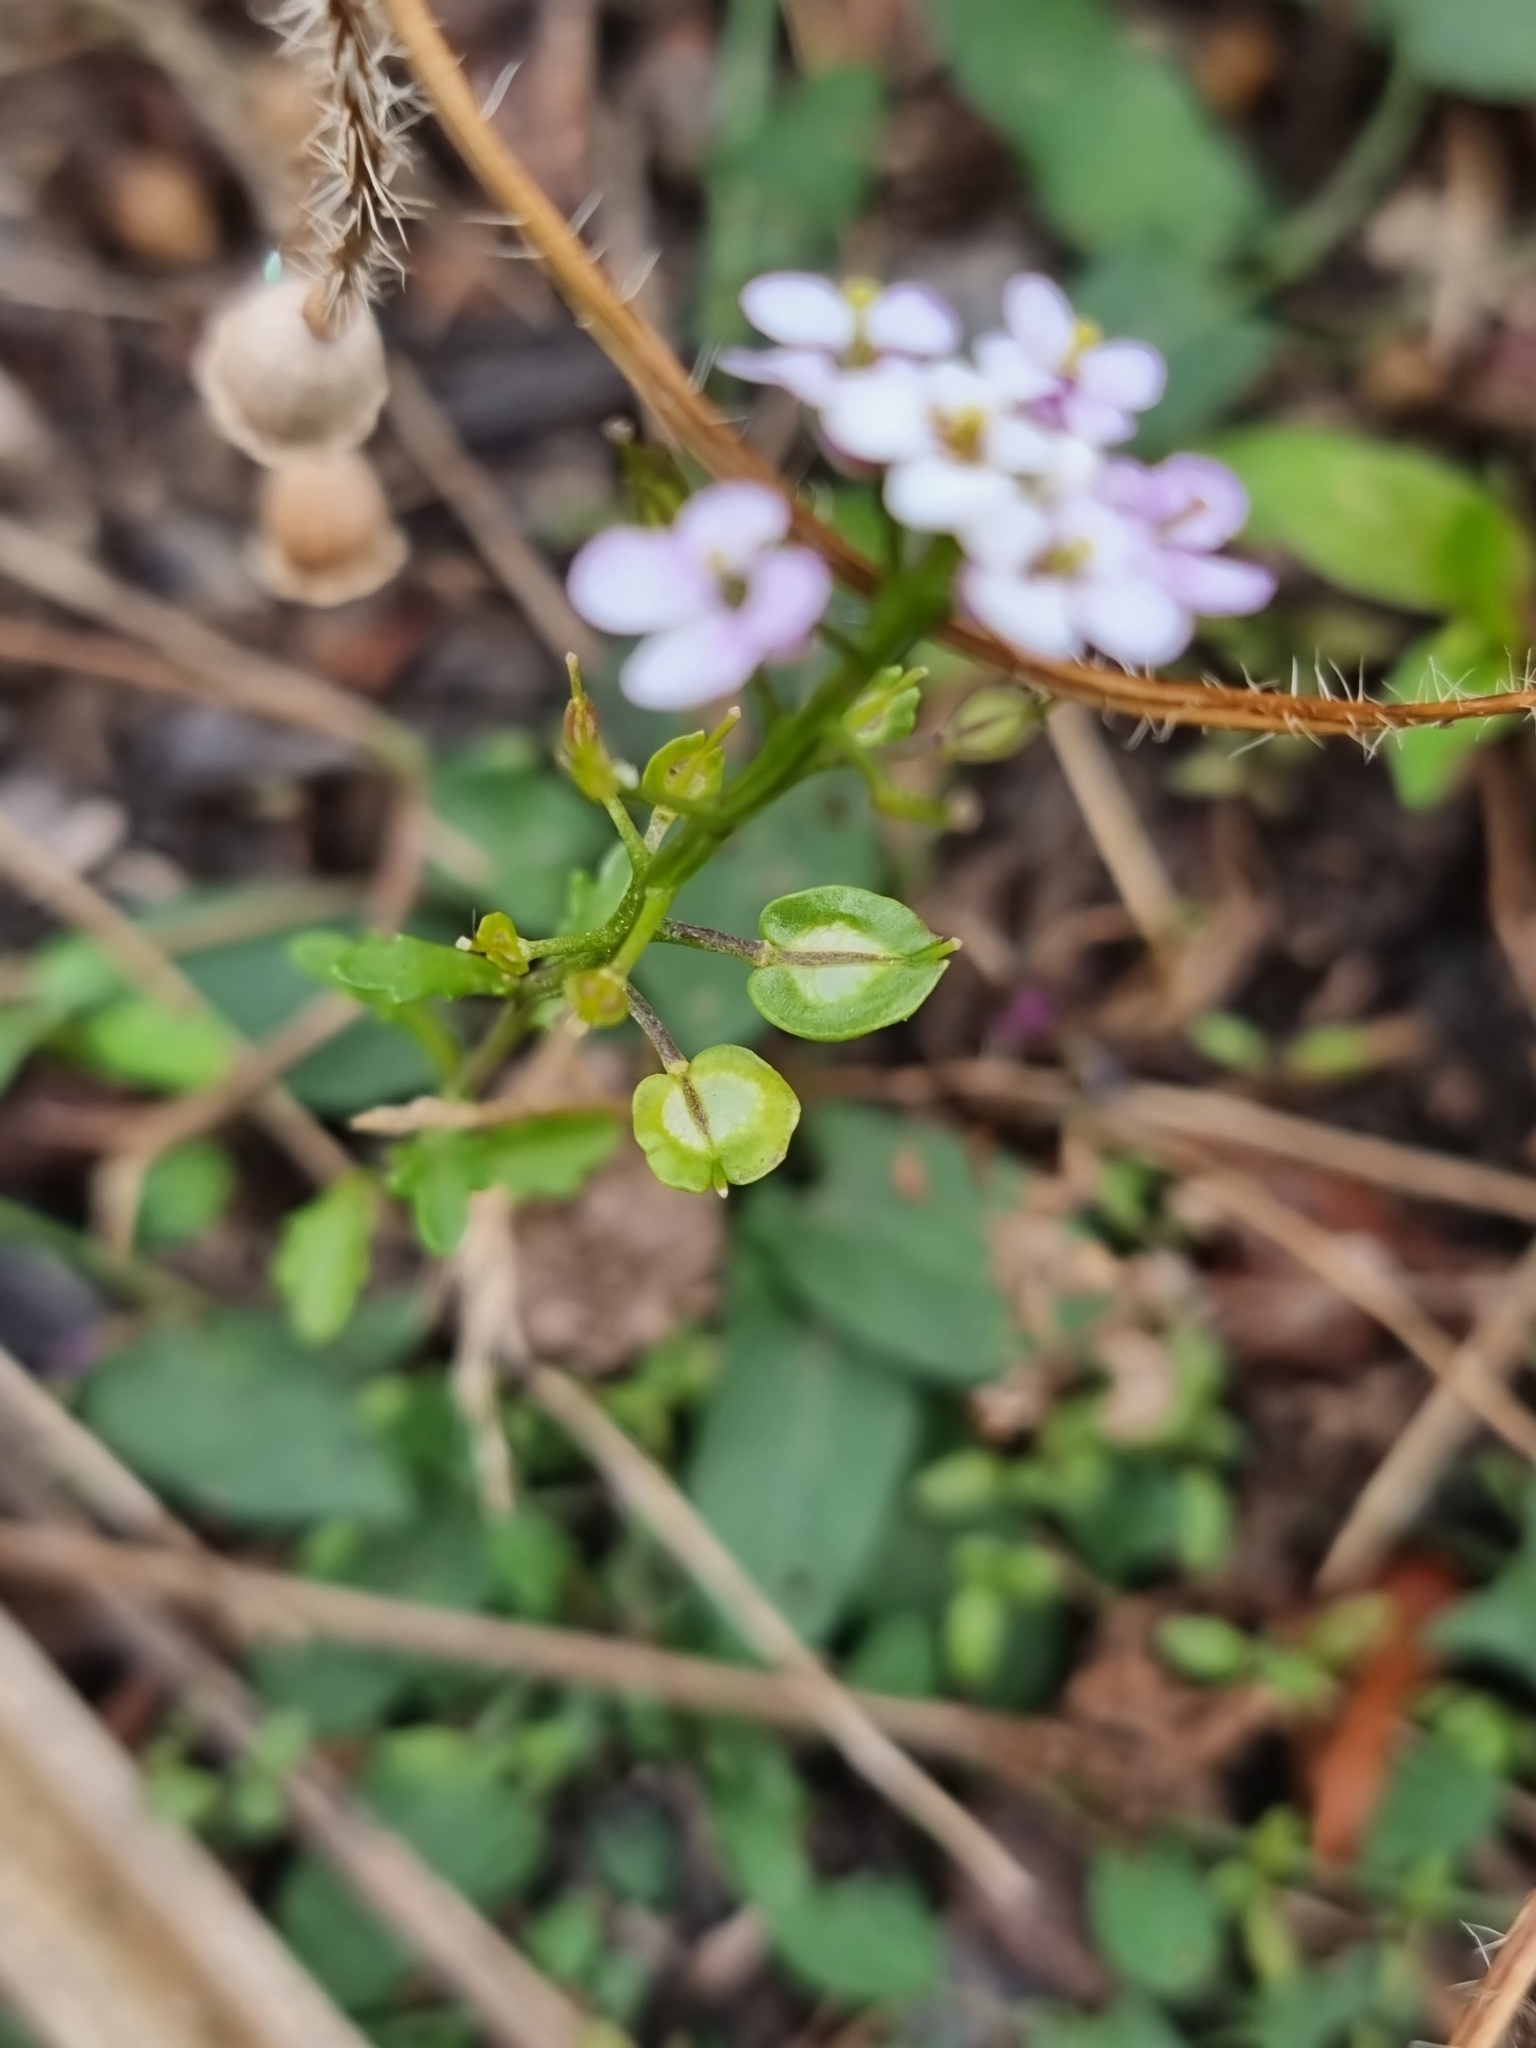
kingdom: Plantae
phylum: Tracheophyta
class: Magnoliopsida
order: Brassicales
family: Brassicaceae
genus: Iberis
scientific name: Iberis amara
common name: Annual candytuft
